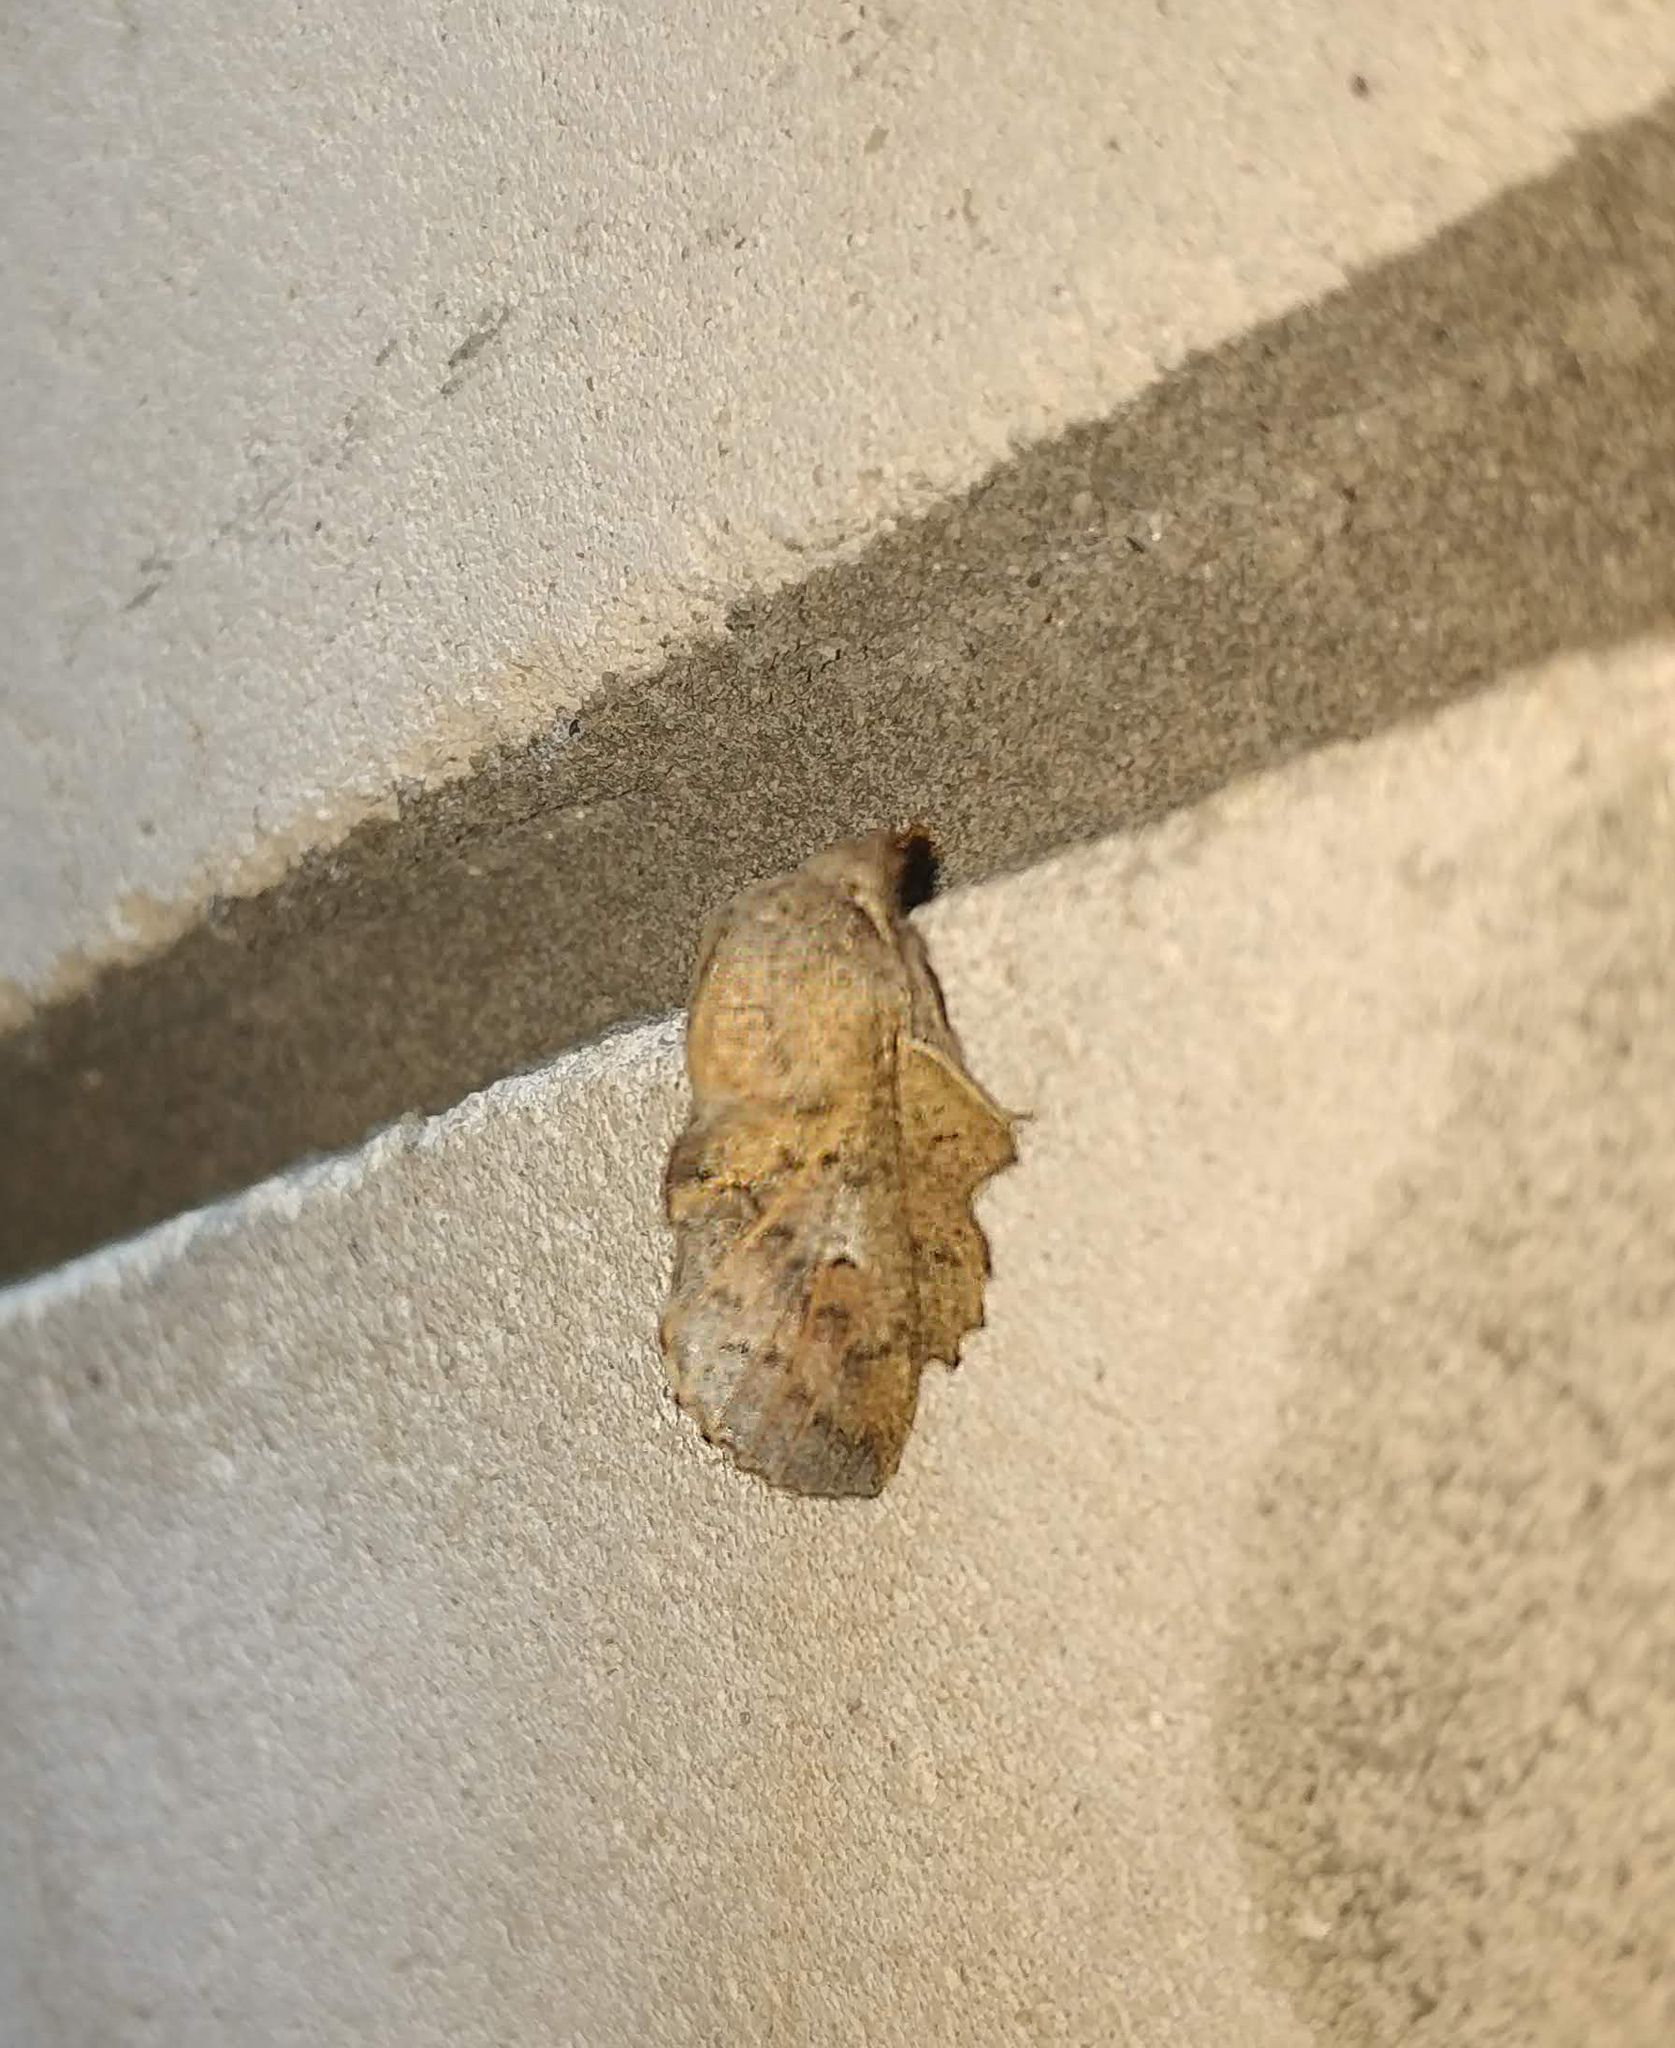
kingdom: Animalia
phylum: Arthropoda
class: Insecta
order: Lepidoptera
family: Lasiocampidae
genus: Phyllodesma
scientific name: Phyllodesma tremulifolia
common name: Aspen lappet
